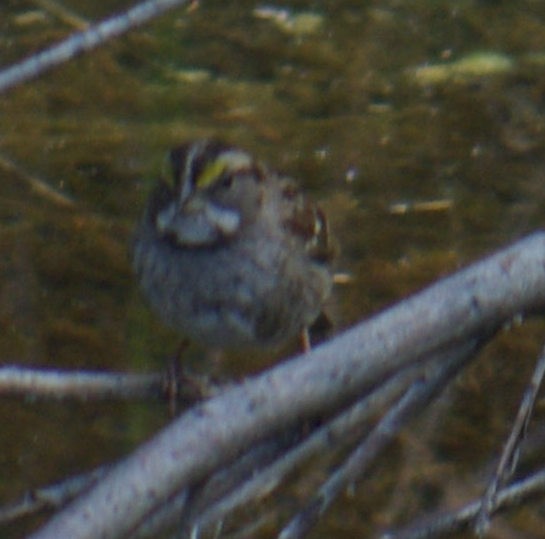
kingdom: Animalia
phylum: Chordata
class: Aves
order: Passeriformes
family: Passerellidae
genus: Zonotrichia
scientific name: Zonotrichia albicollis
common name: White-throated sparrow
